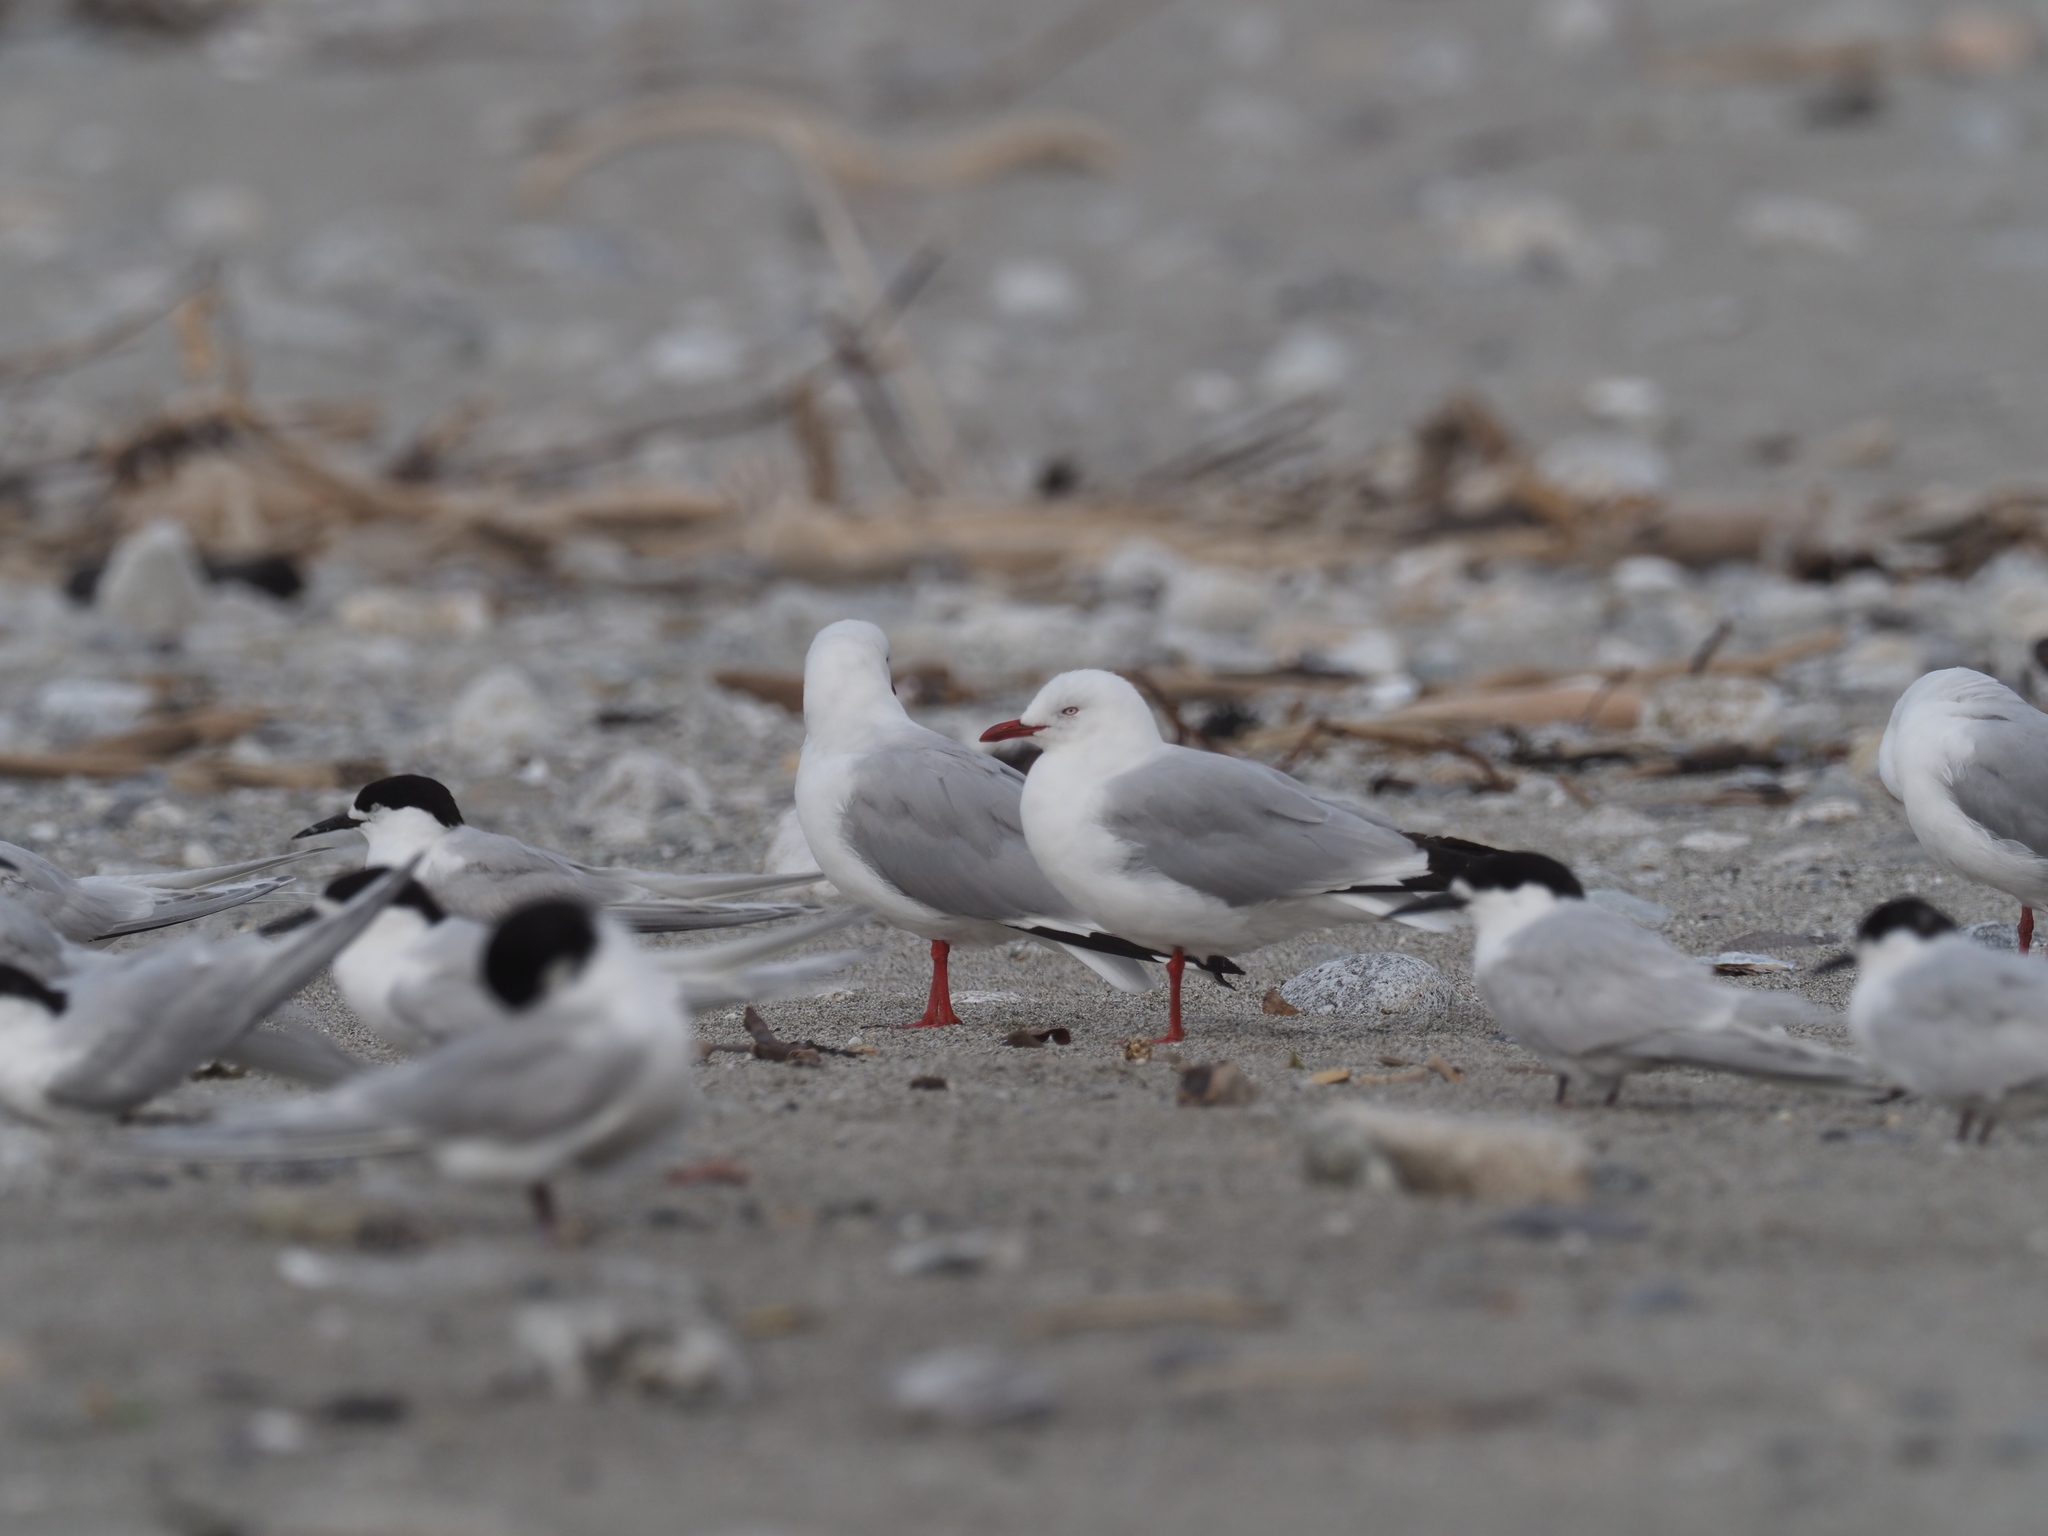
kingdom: Animalia
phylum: Chordata
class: Aves
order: Charadriiformes
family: Laridae
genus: Chroicocephalus
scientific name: Chroicocephalus novaehollandiae
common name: Silver gull
